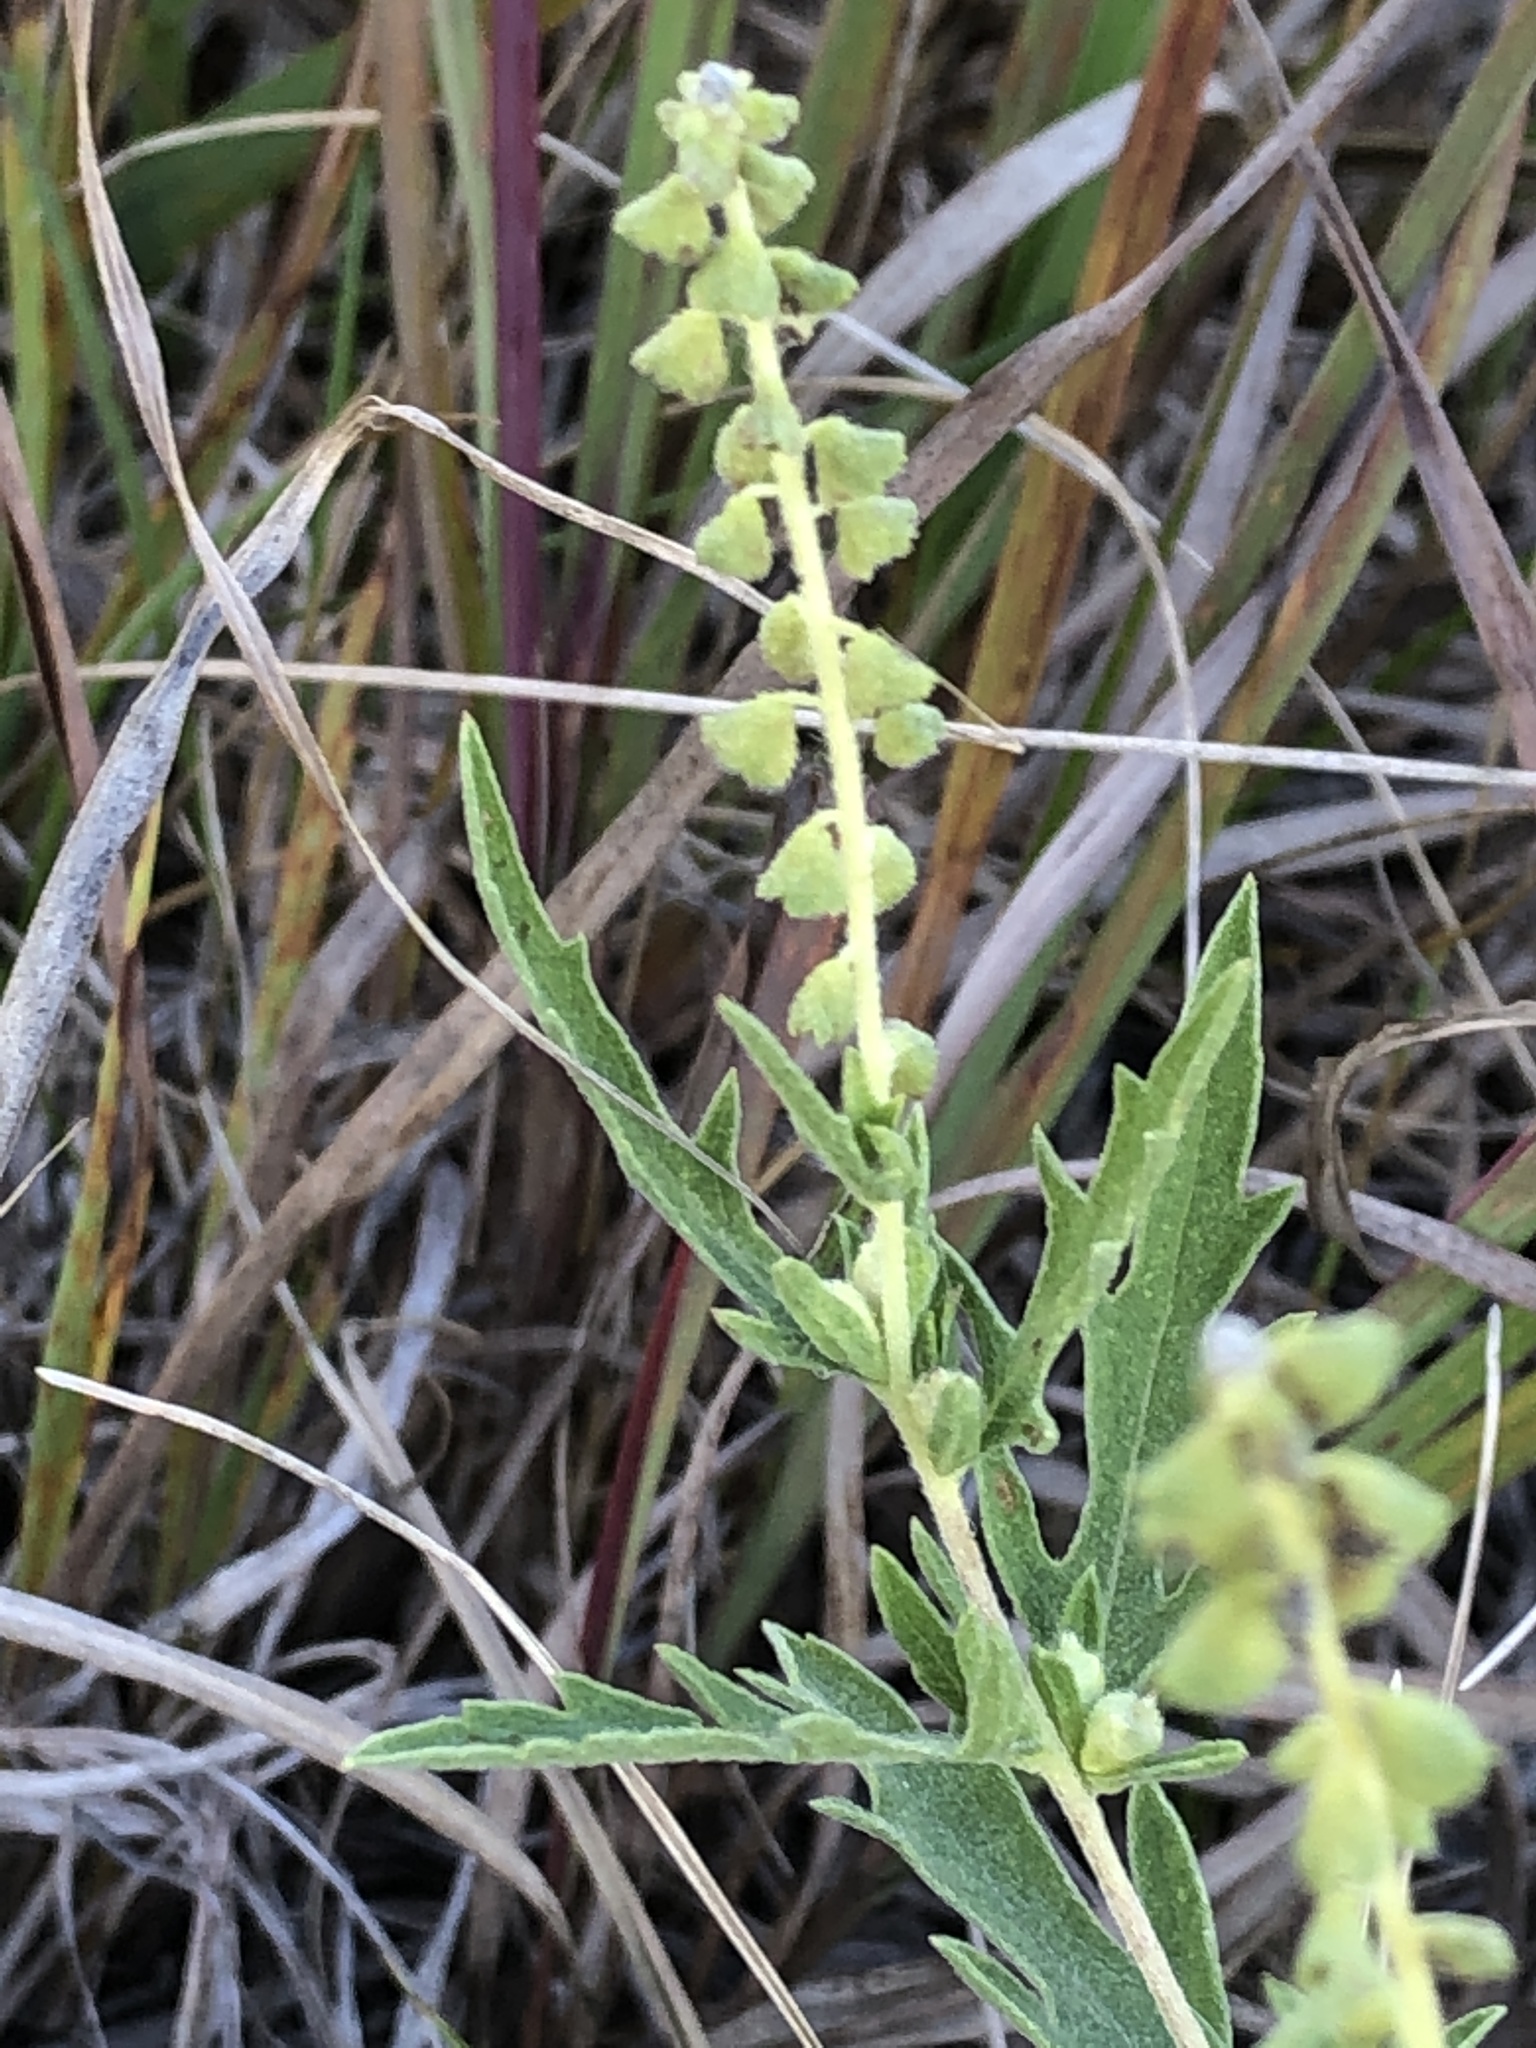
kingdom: Plantae
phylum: Tracheophyta
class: Magnoliopsida
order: Asterales
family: Asteraceae
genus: Ambrosia
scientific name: Ambrosia psilostachya
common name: Perennial ragweed
